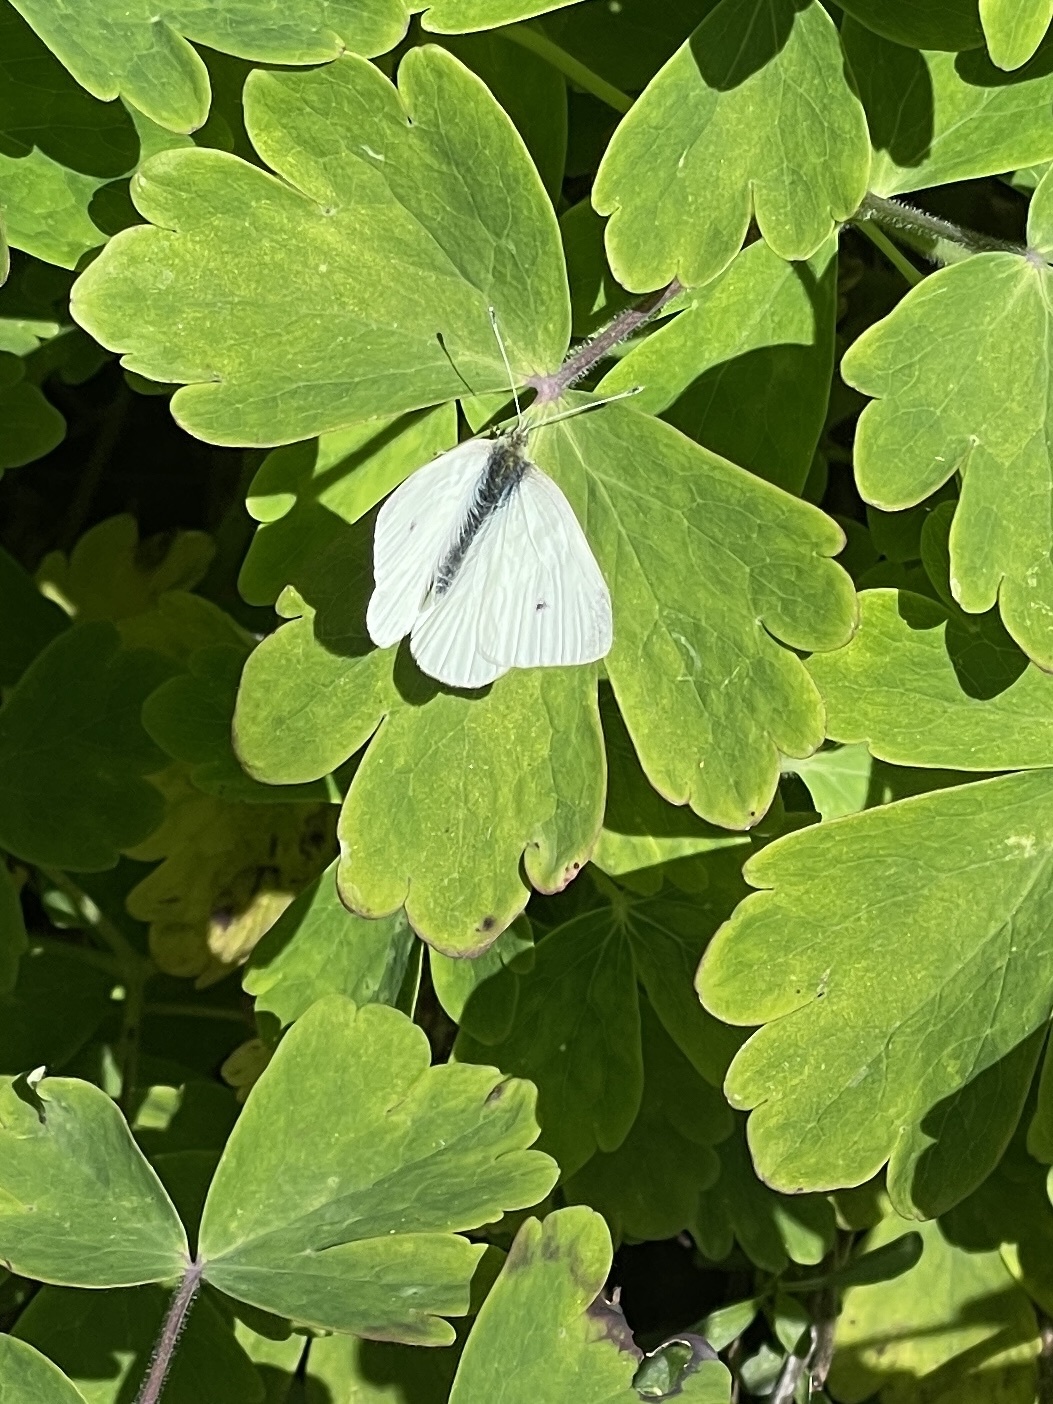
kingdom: Animalia
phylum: Arthropoda
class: Insecta
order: Lepidoptera
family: Pieridae
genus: Pieris
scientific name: Pieris rapae
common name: Small white
